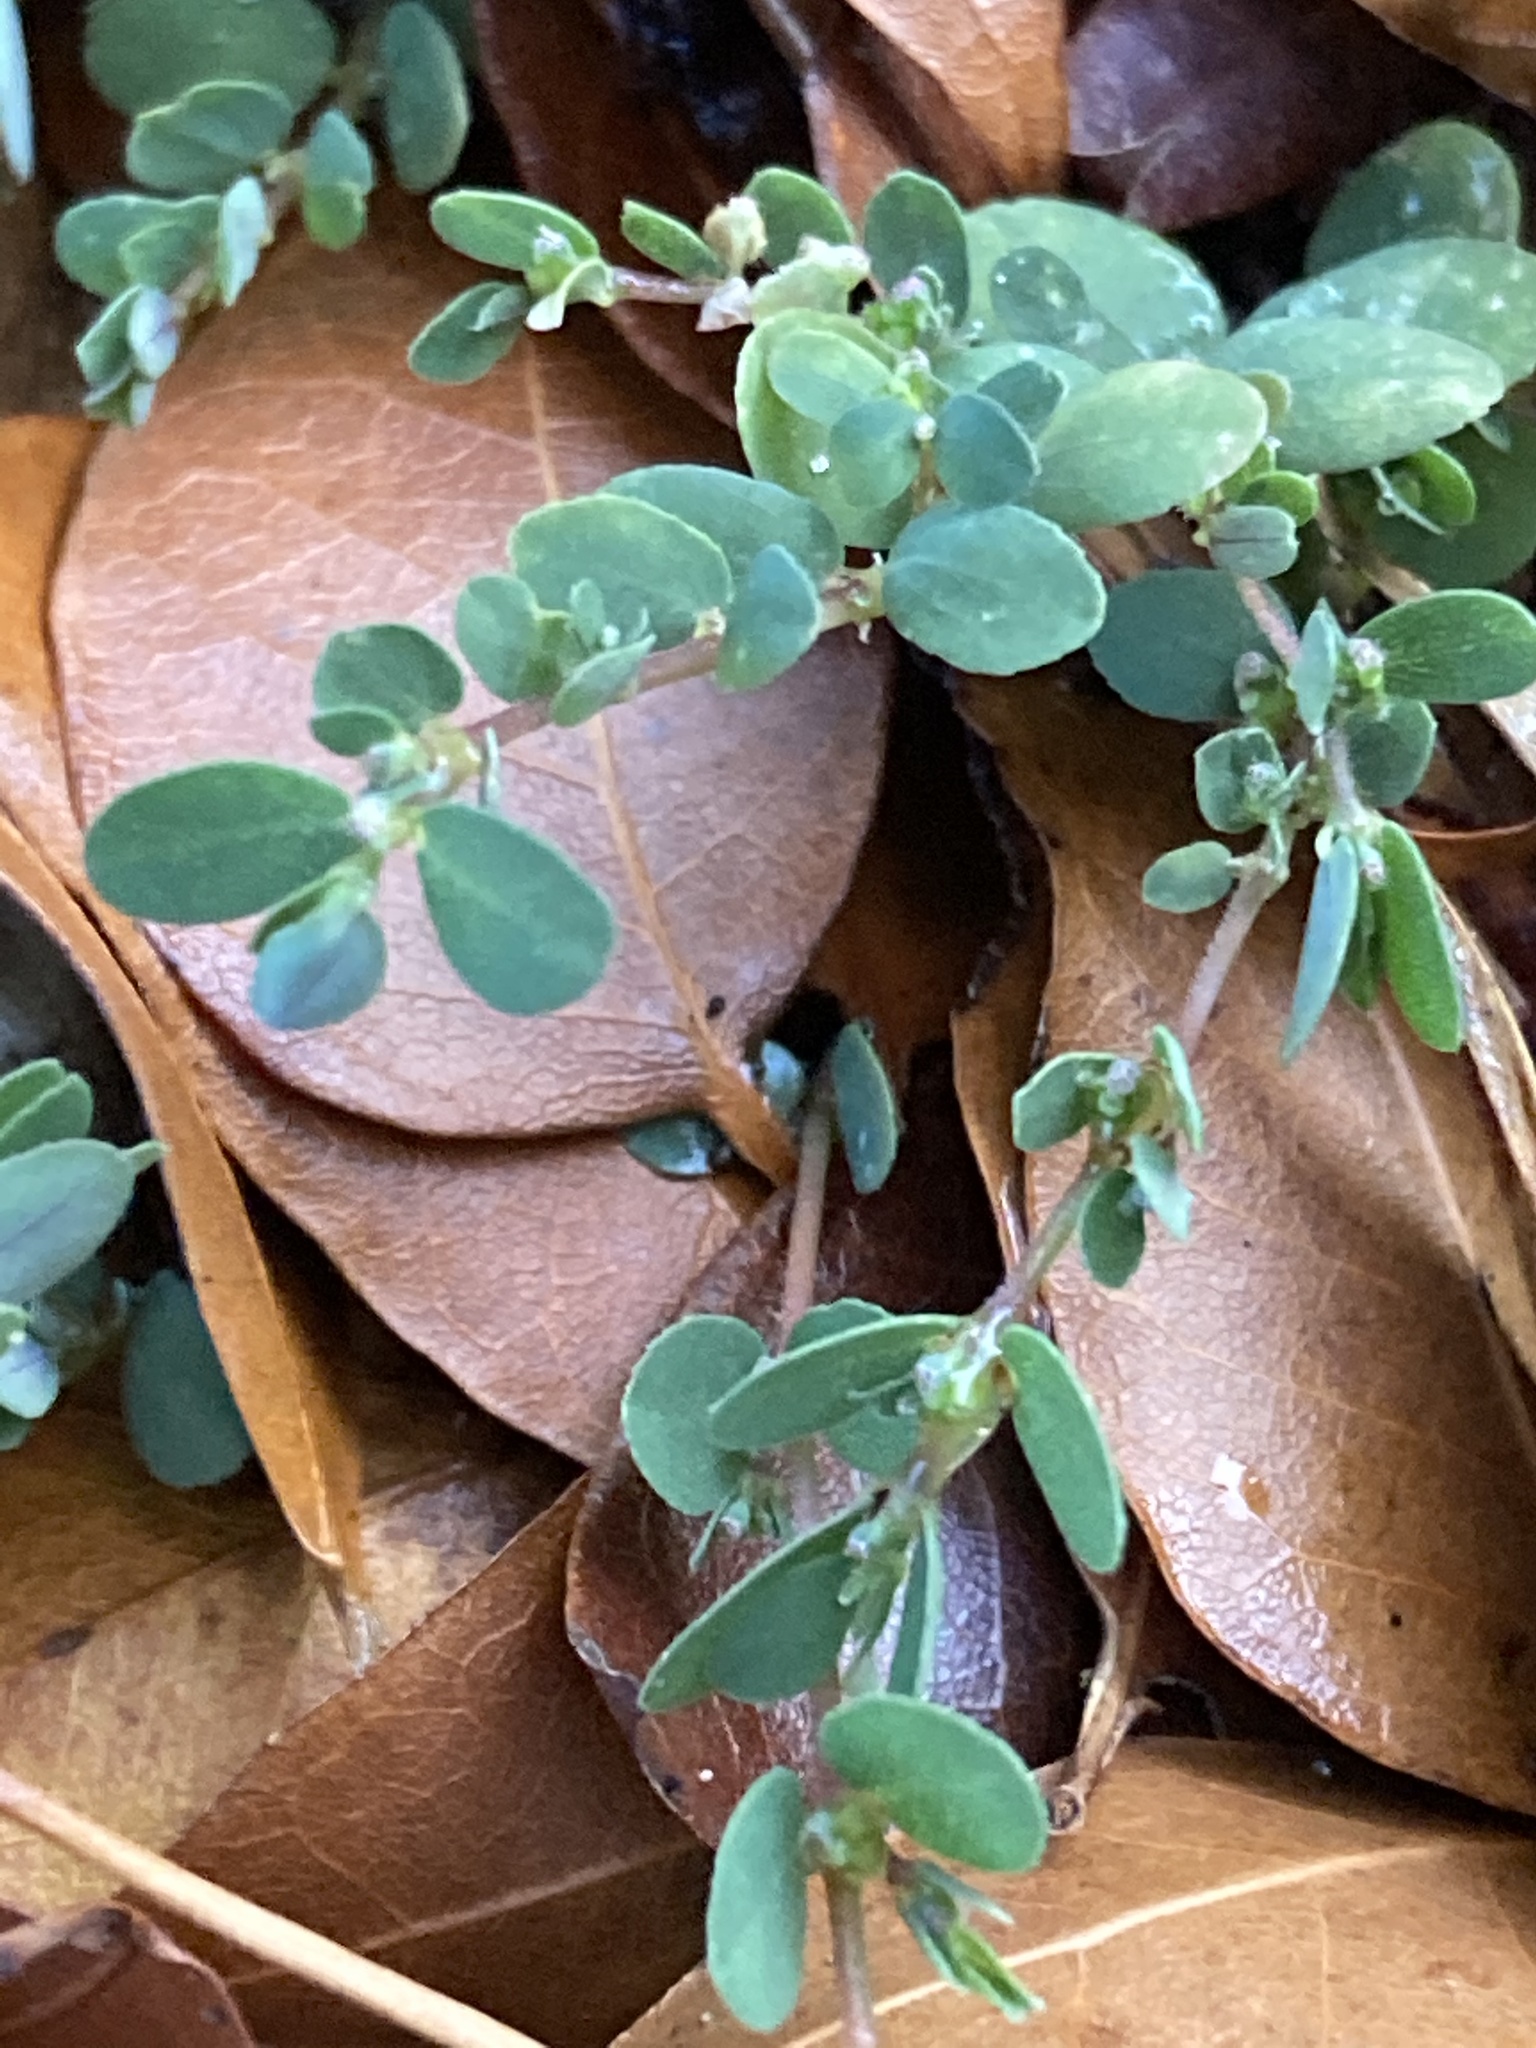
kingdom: Plantae
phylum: Tracheophyta
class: Magnoliopsida
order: Malpighiales
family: Euphorbiaceae
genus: Euphorbia
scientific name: Euphorbia prostrata
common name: Prostrate sandmat
